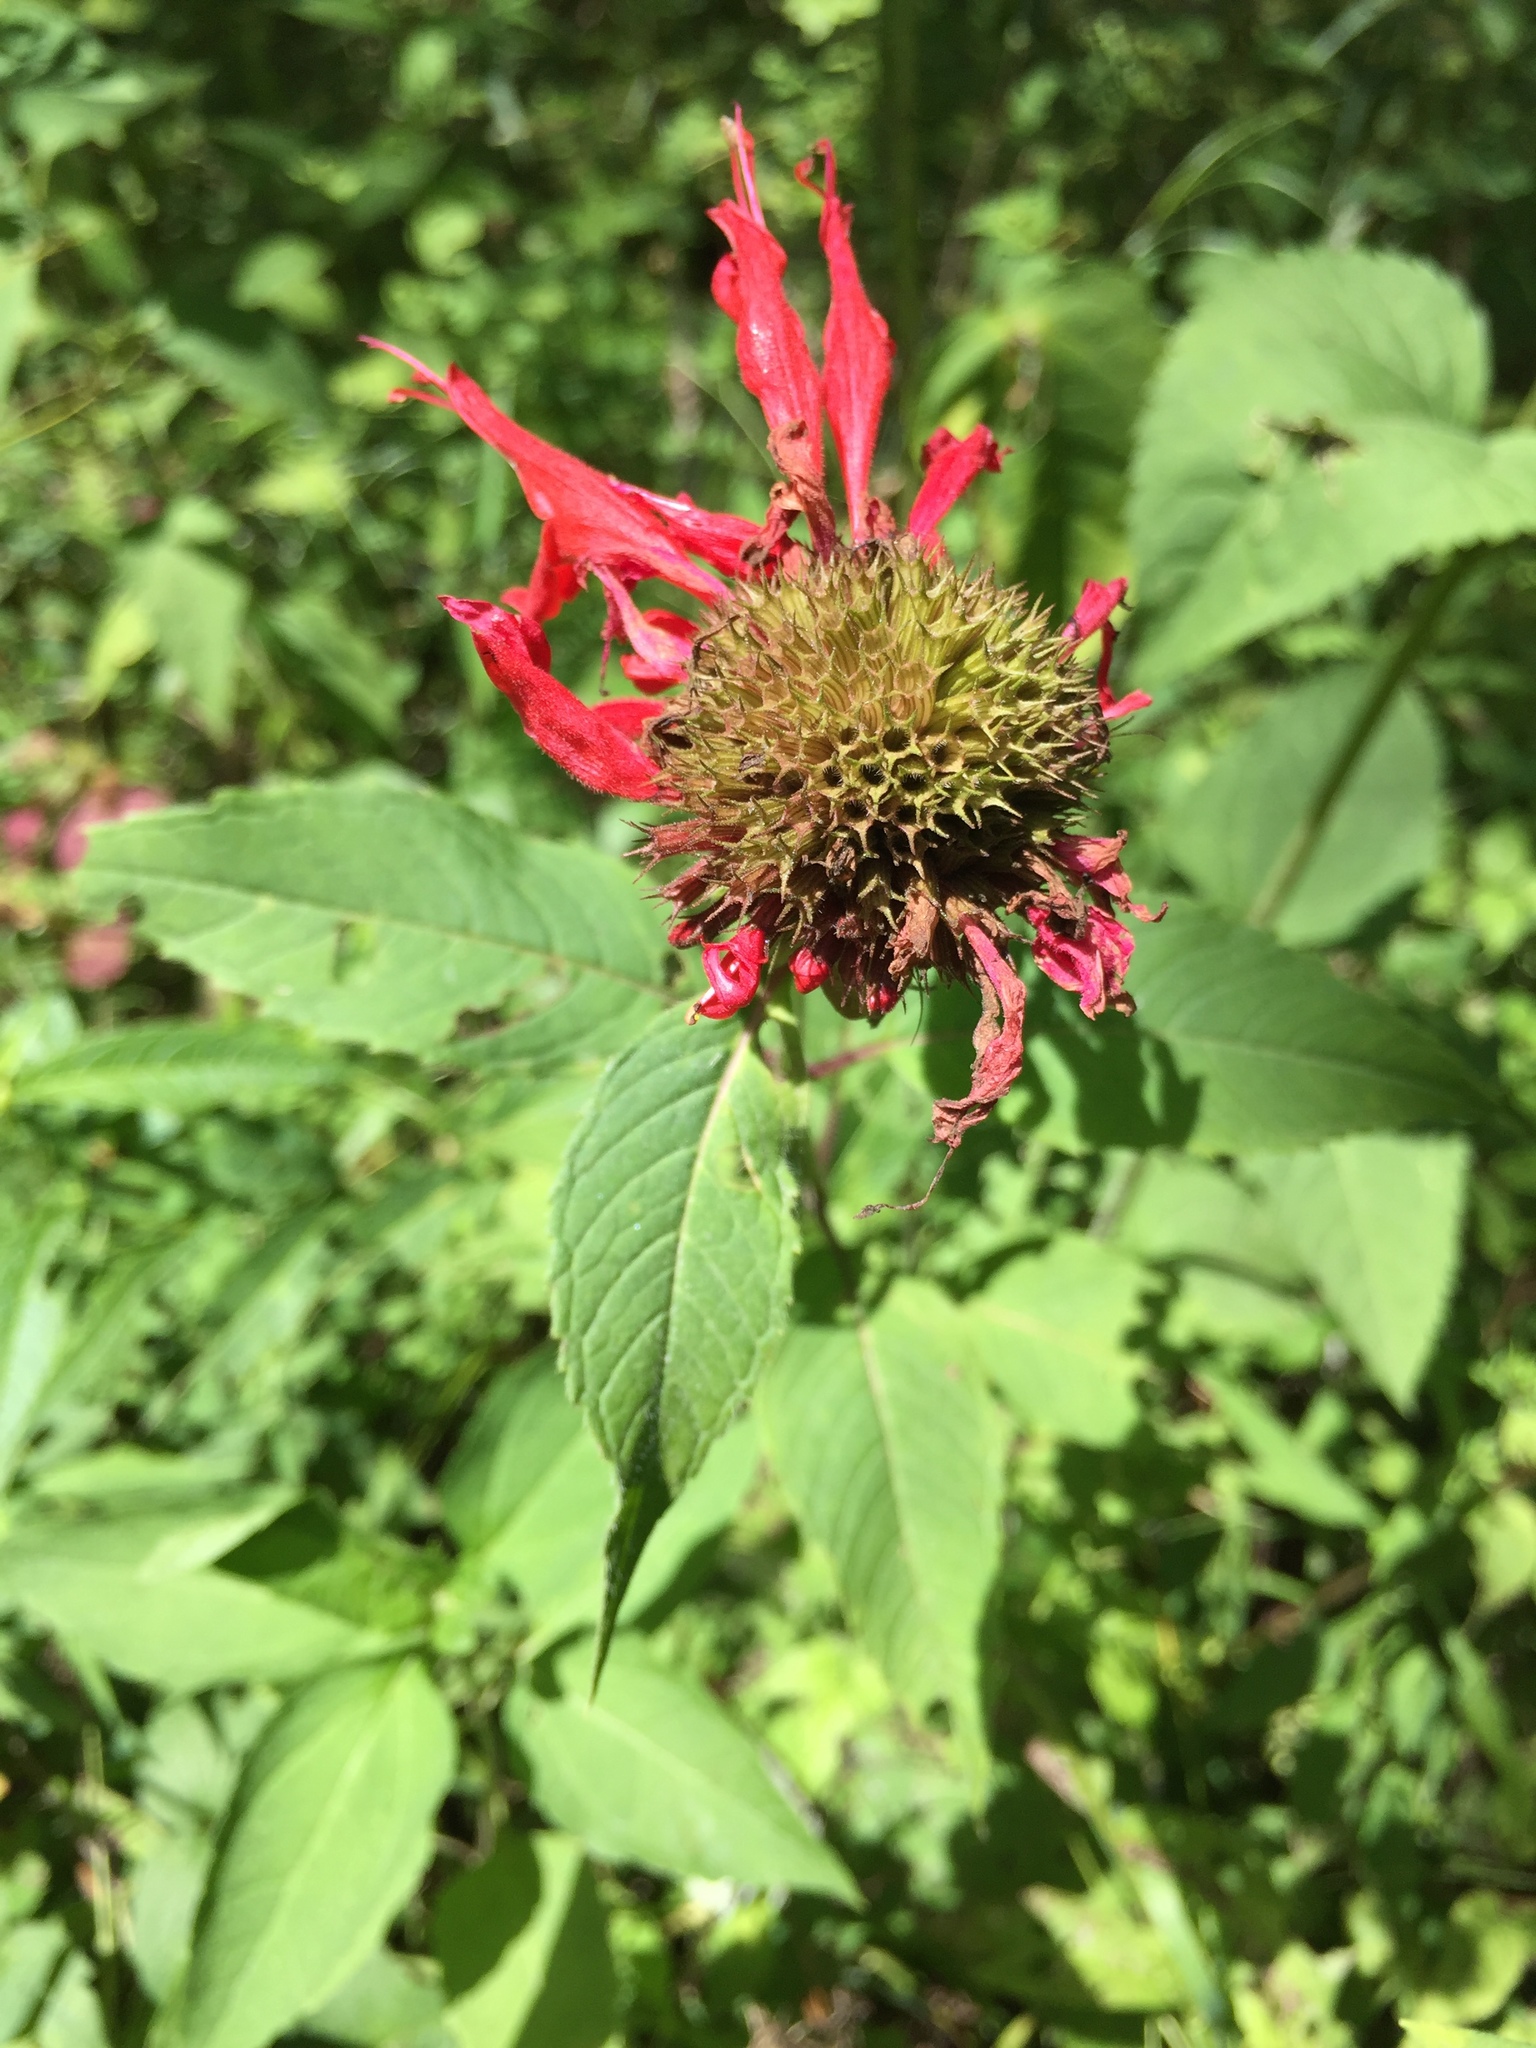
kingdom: Plantae
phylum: Tracheophyta
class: Magnoliopsida
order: Lamiales
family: Lamiaceae
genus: Monarda
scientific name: Monarda didyma
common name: Beebalm
